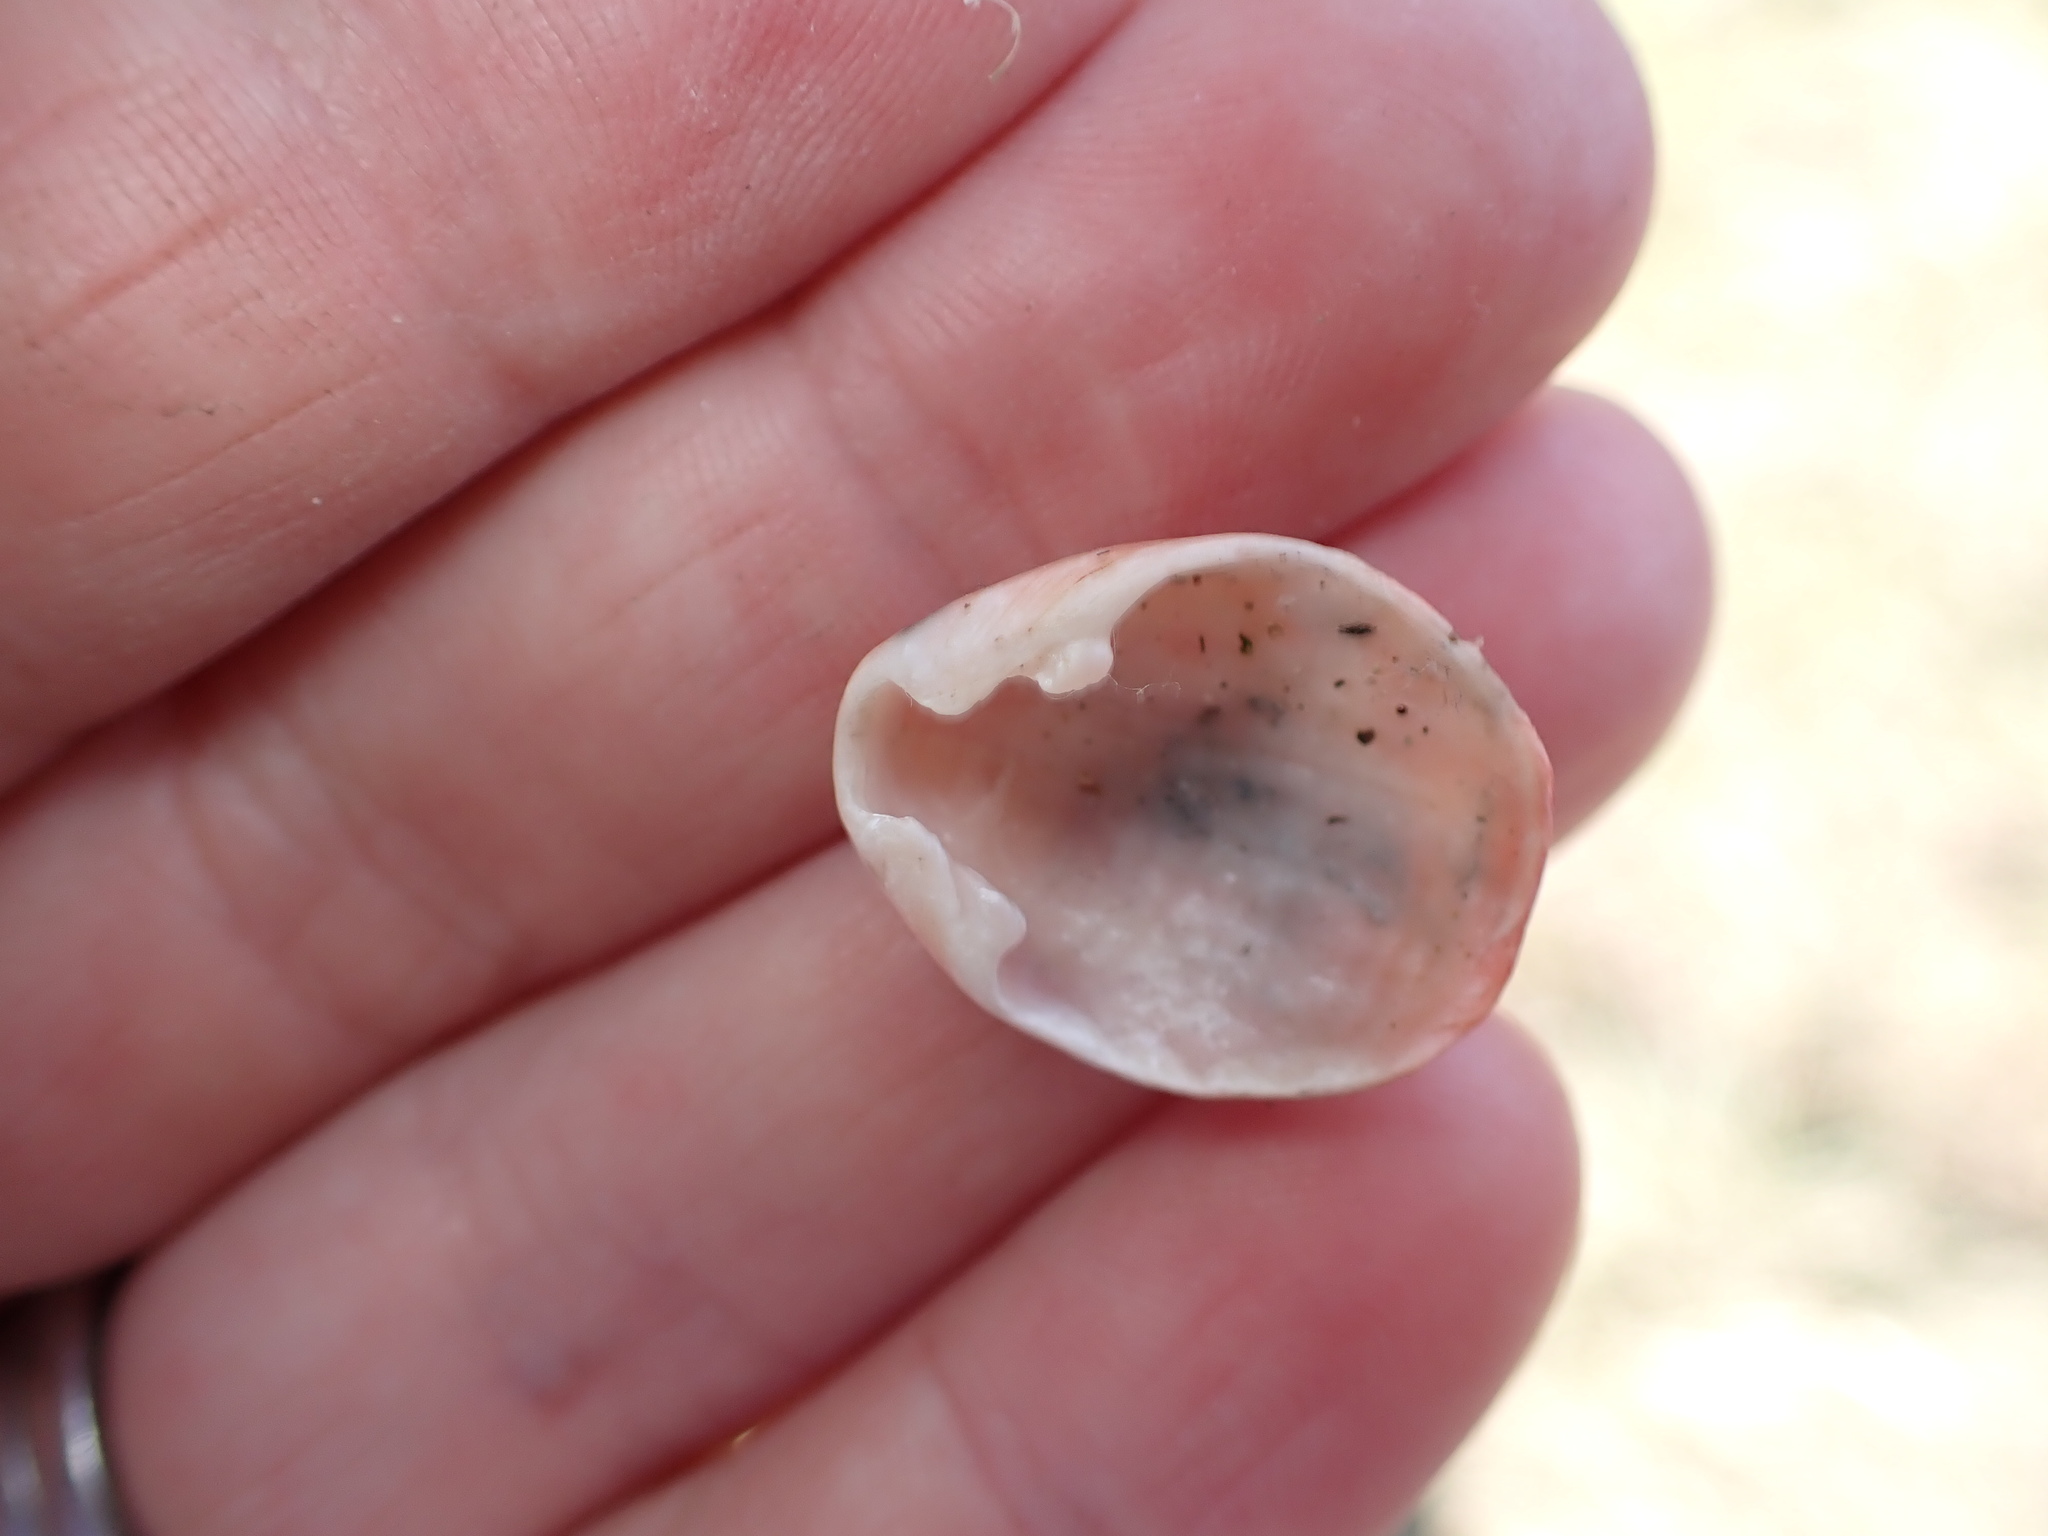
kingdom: Animalia
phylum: Brachiopoda
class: Rhynchonellata
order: Terebratulida
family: Terebratellidae
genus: Calloria
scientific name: Calloria inconspicua
